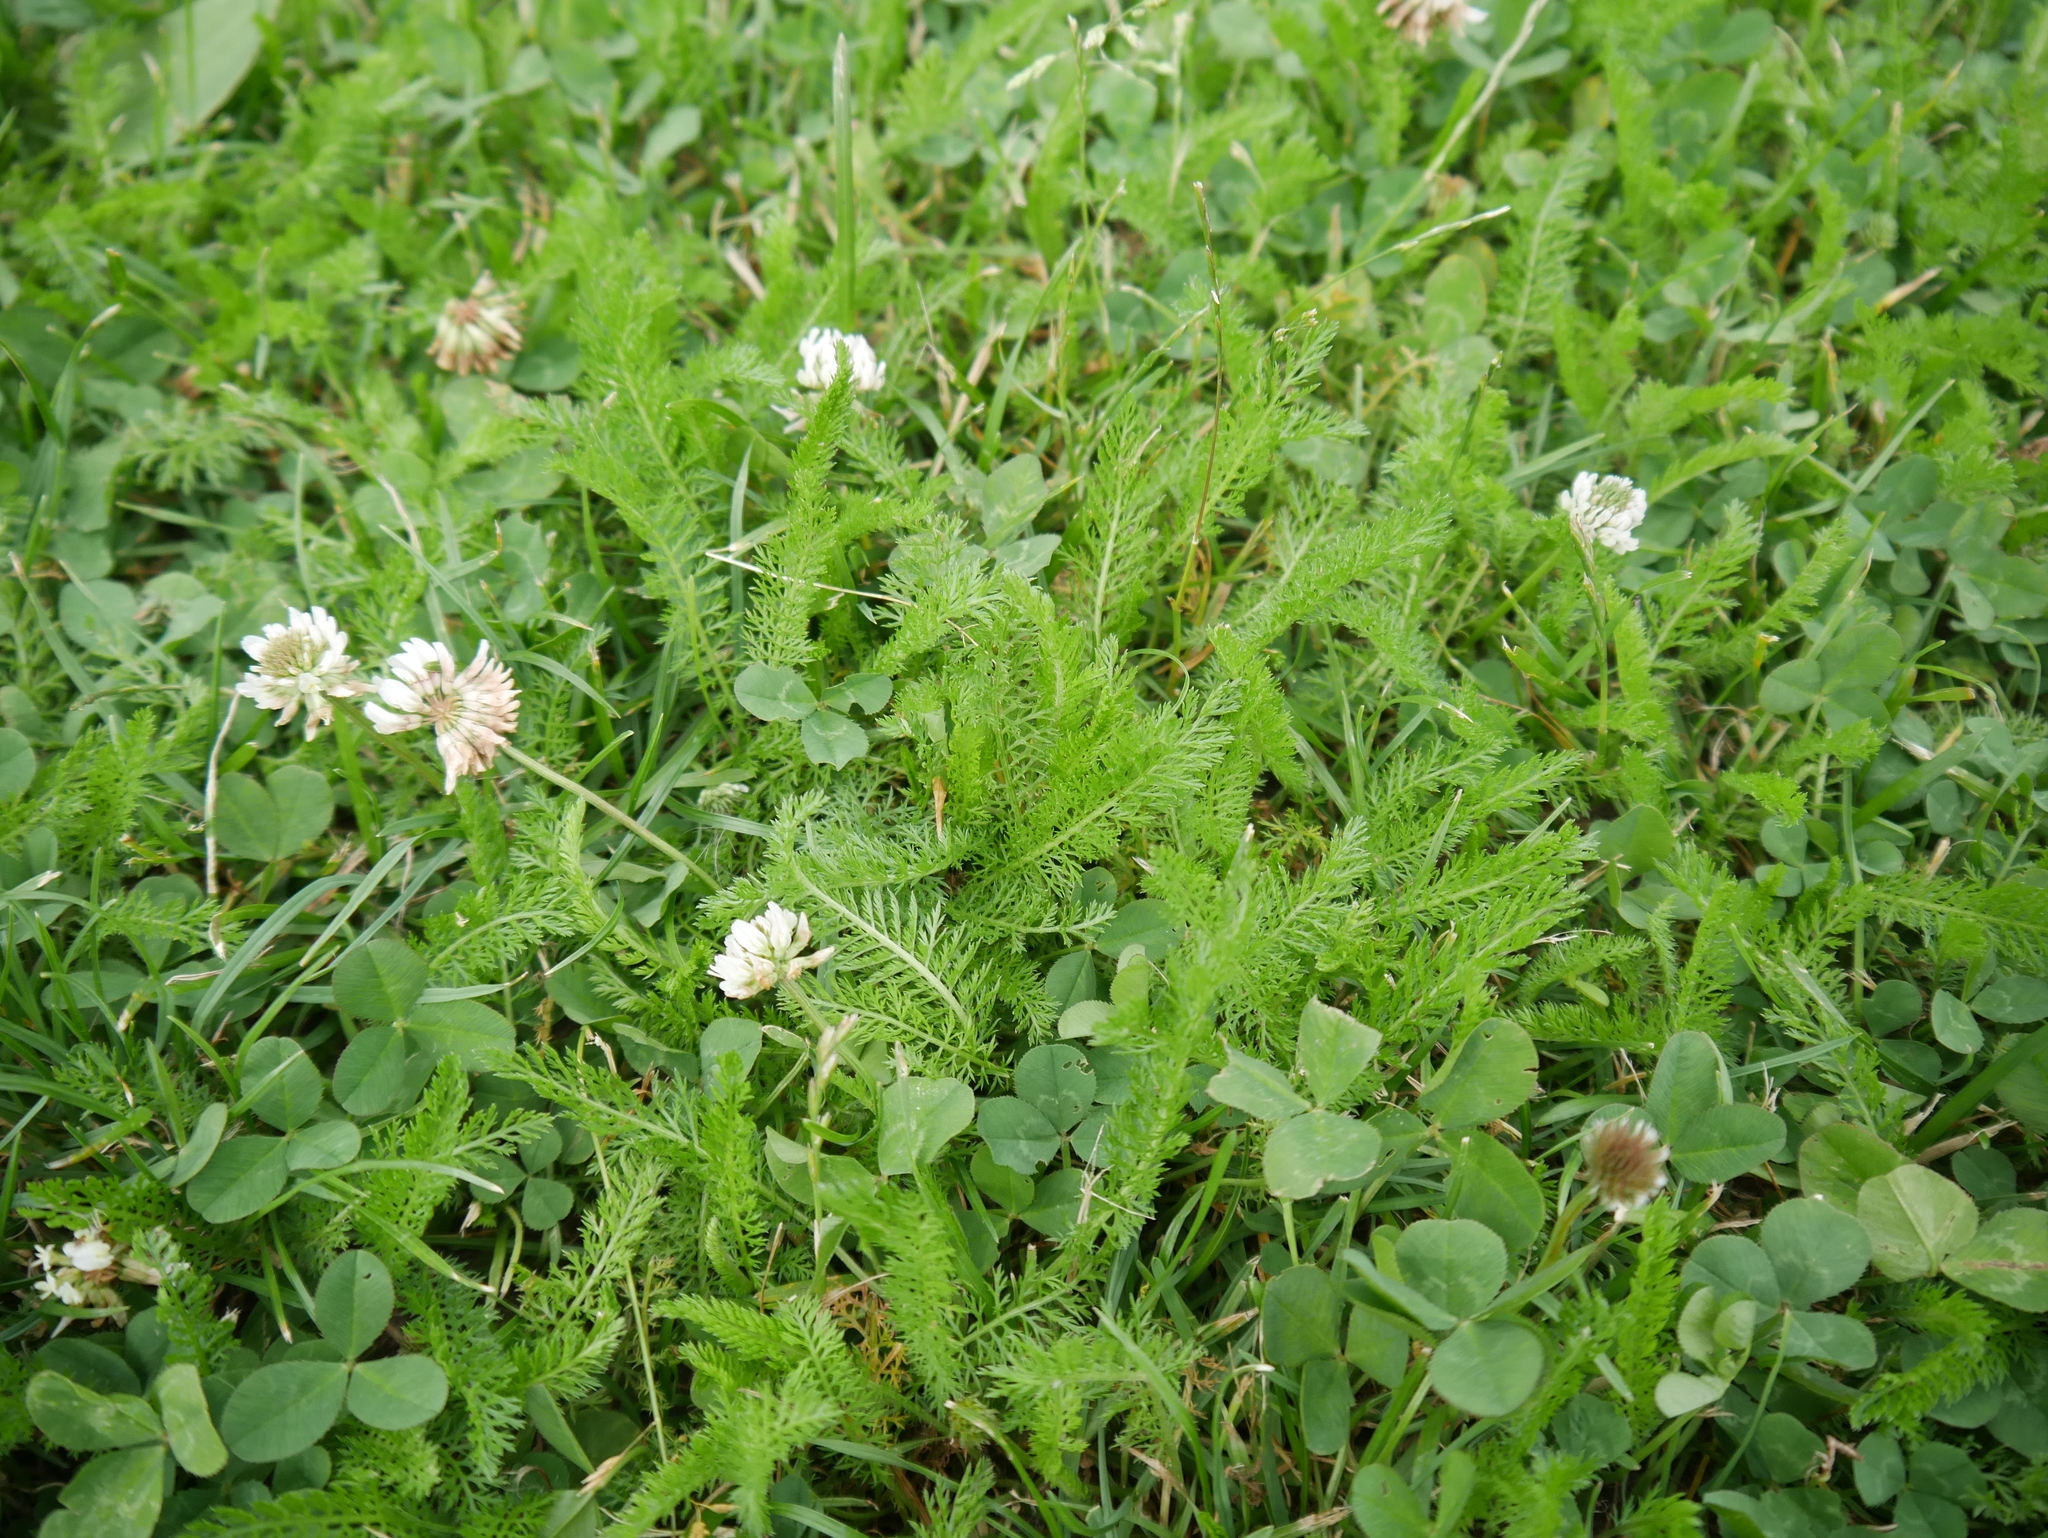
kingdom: Plantae
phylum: Tracheophyta
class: Magnoliopsida
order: Asterales
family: Asteraceae
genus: Achillea
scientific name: Achillea millefolium
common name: Yarrow
